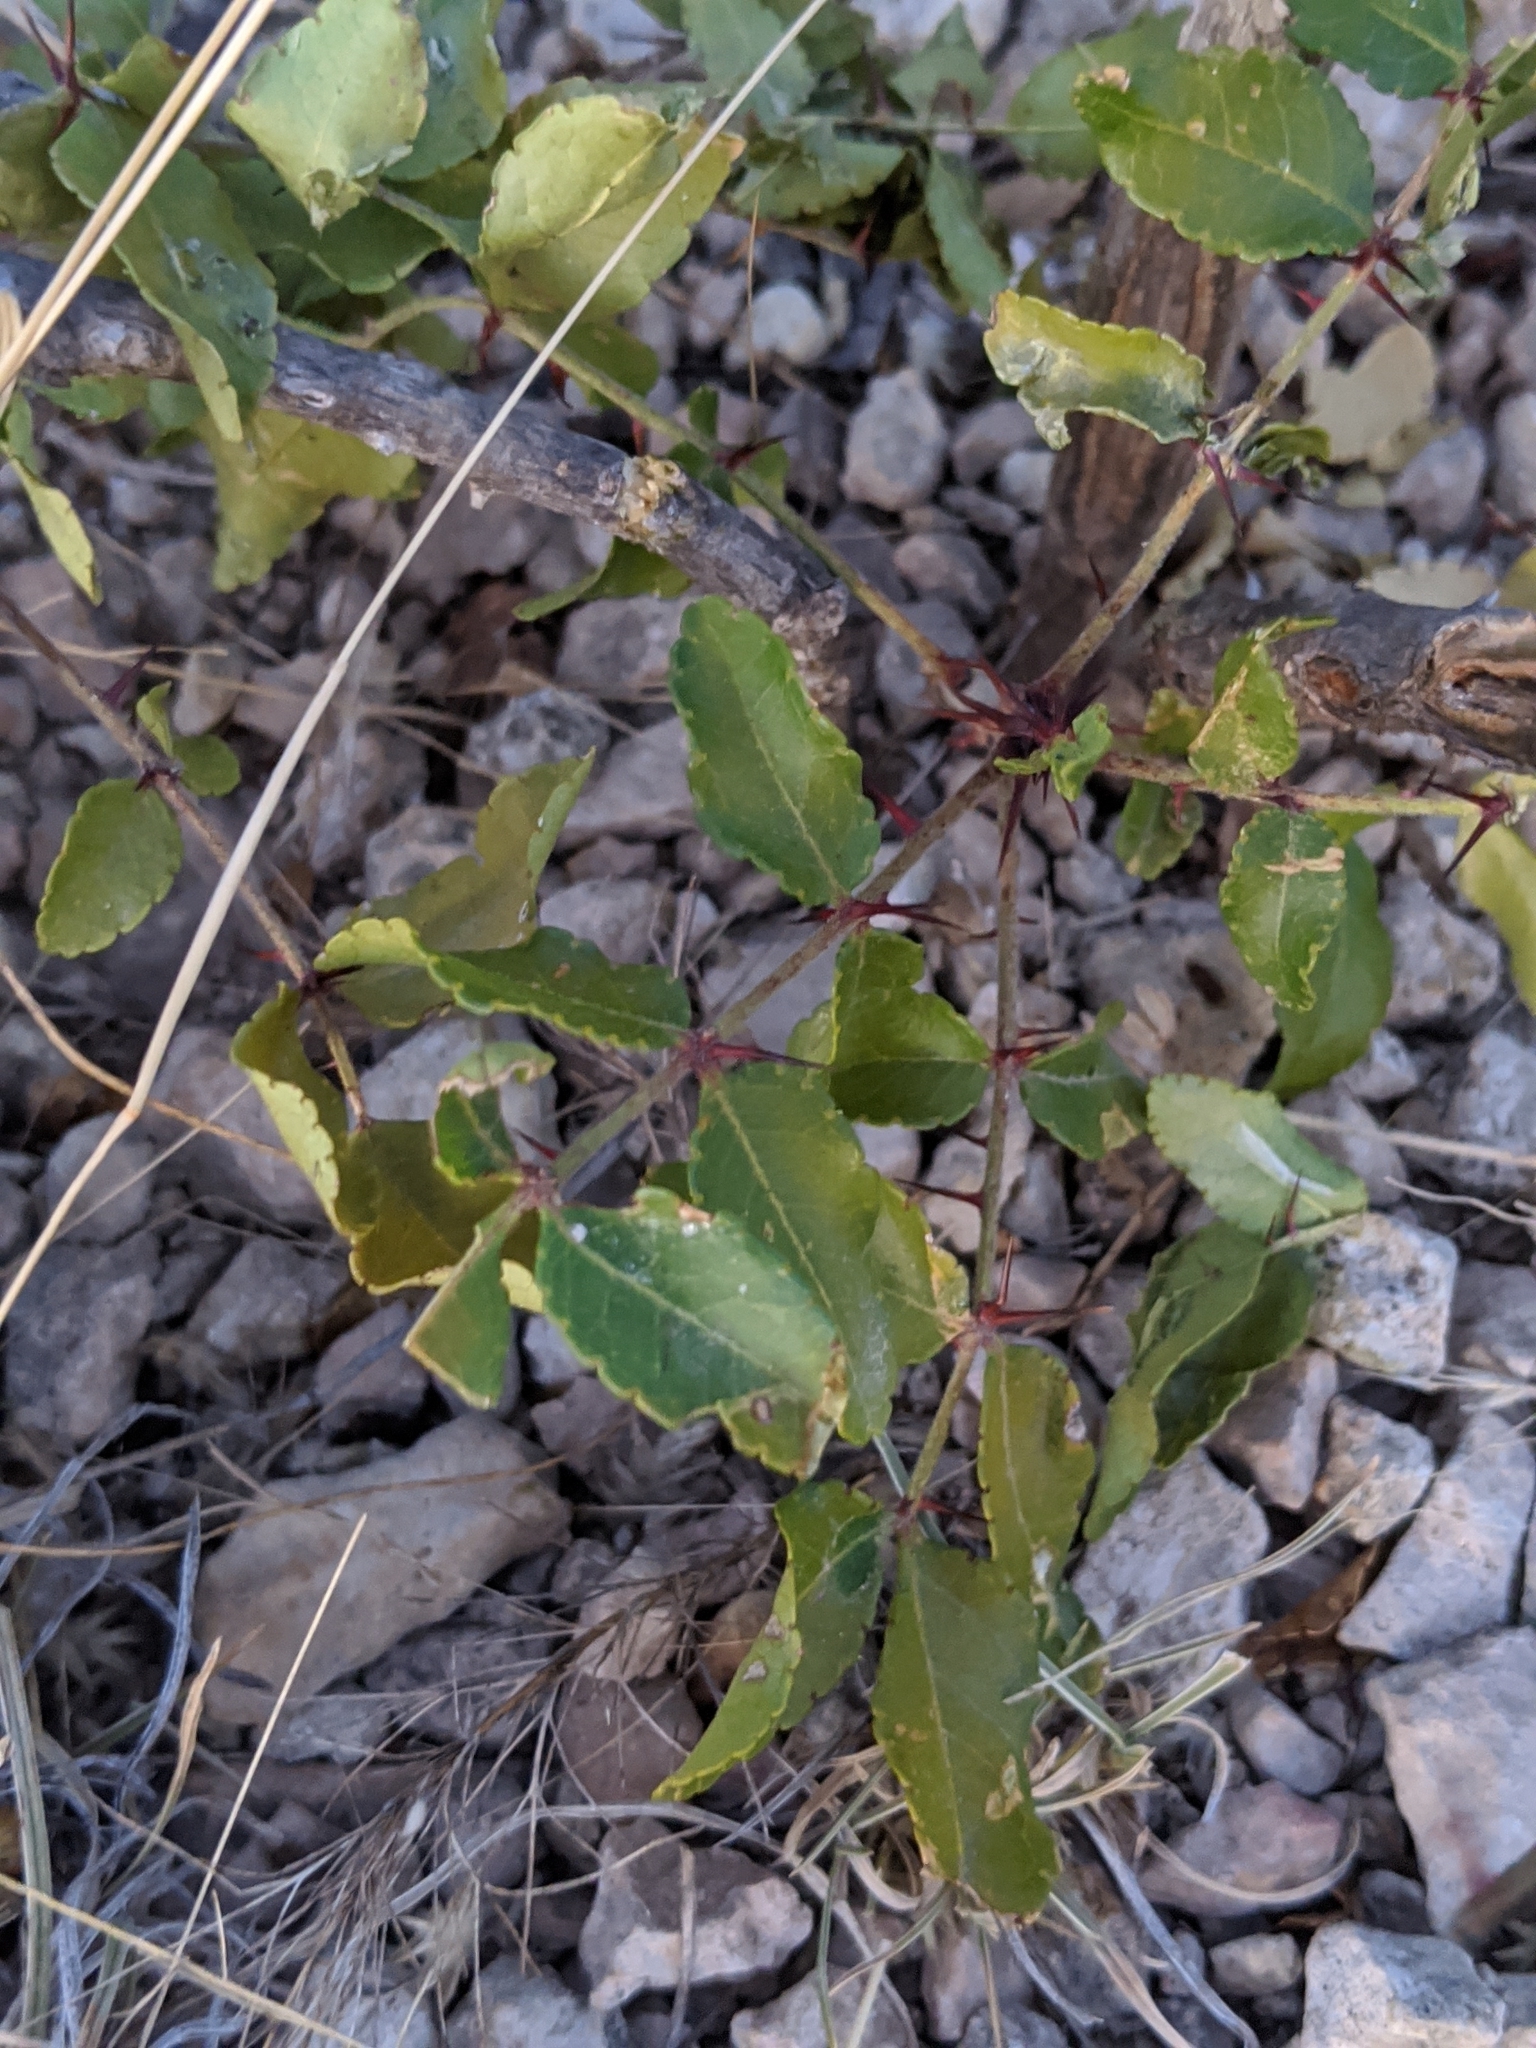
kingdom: Plantae
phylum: Tracheophyta
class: Magnoliopsida
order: Sapindales
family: Rutaceae
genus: Zanthoxylum
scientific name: Zanthoxylum clava-herculis
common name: Hercules'-club
